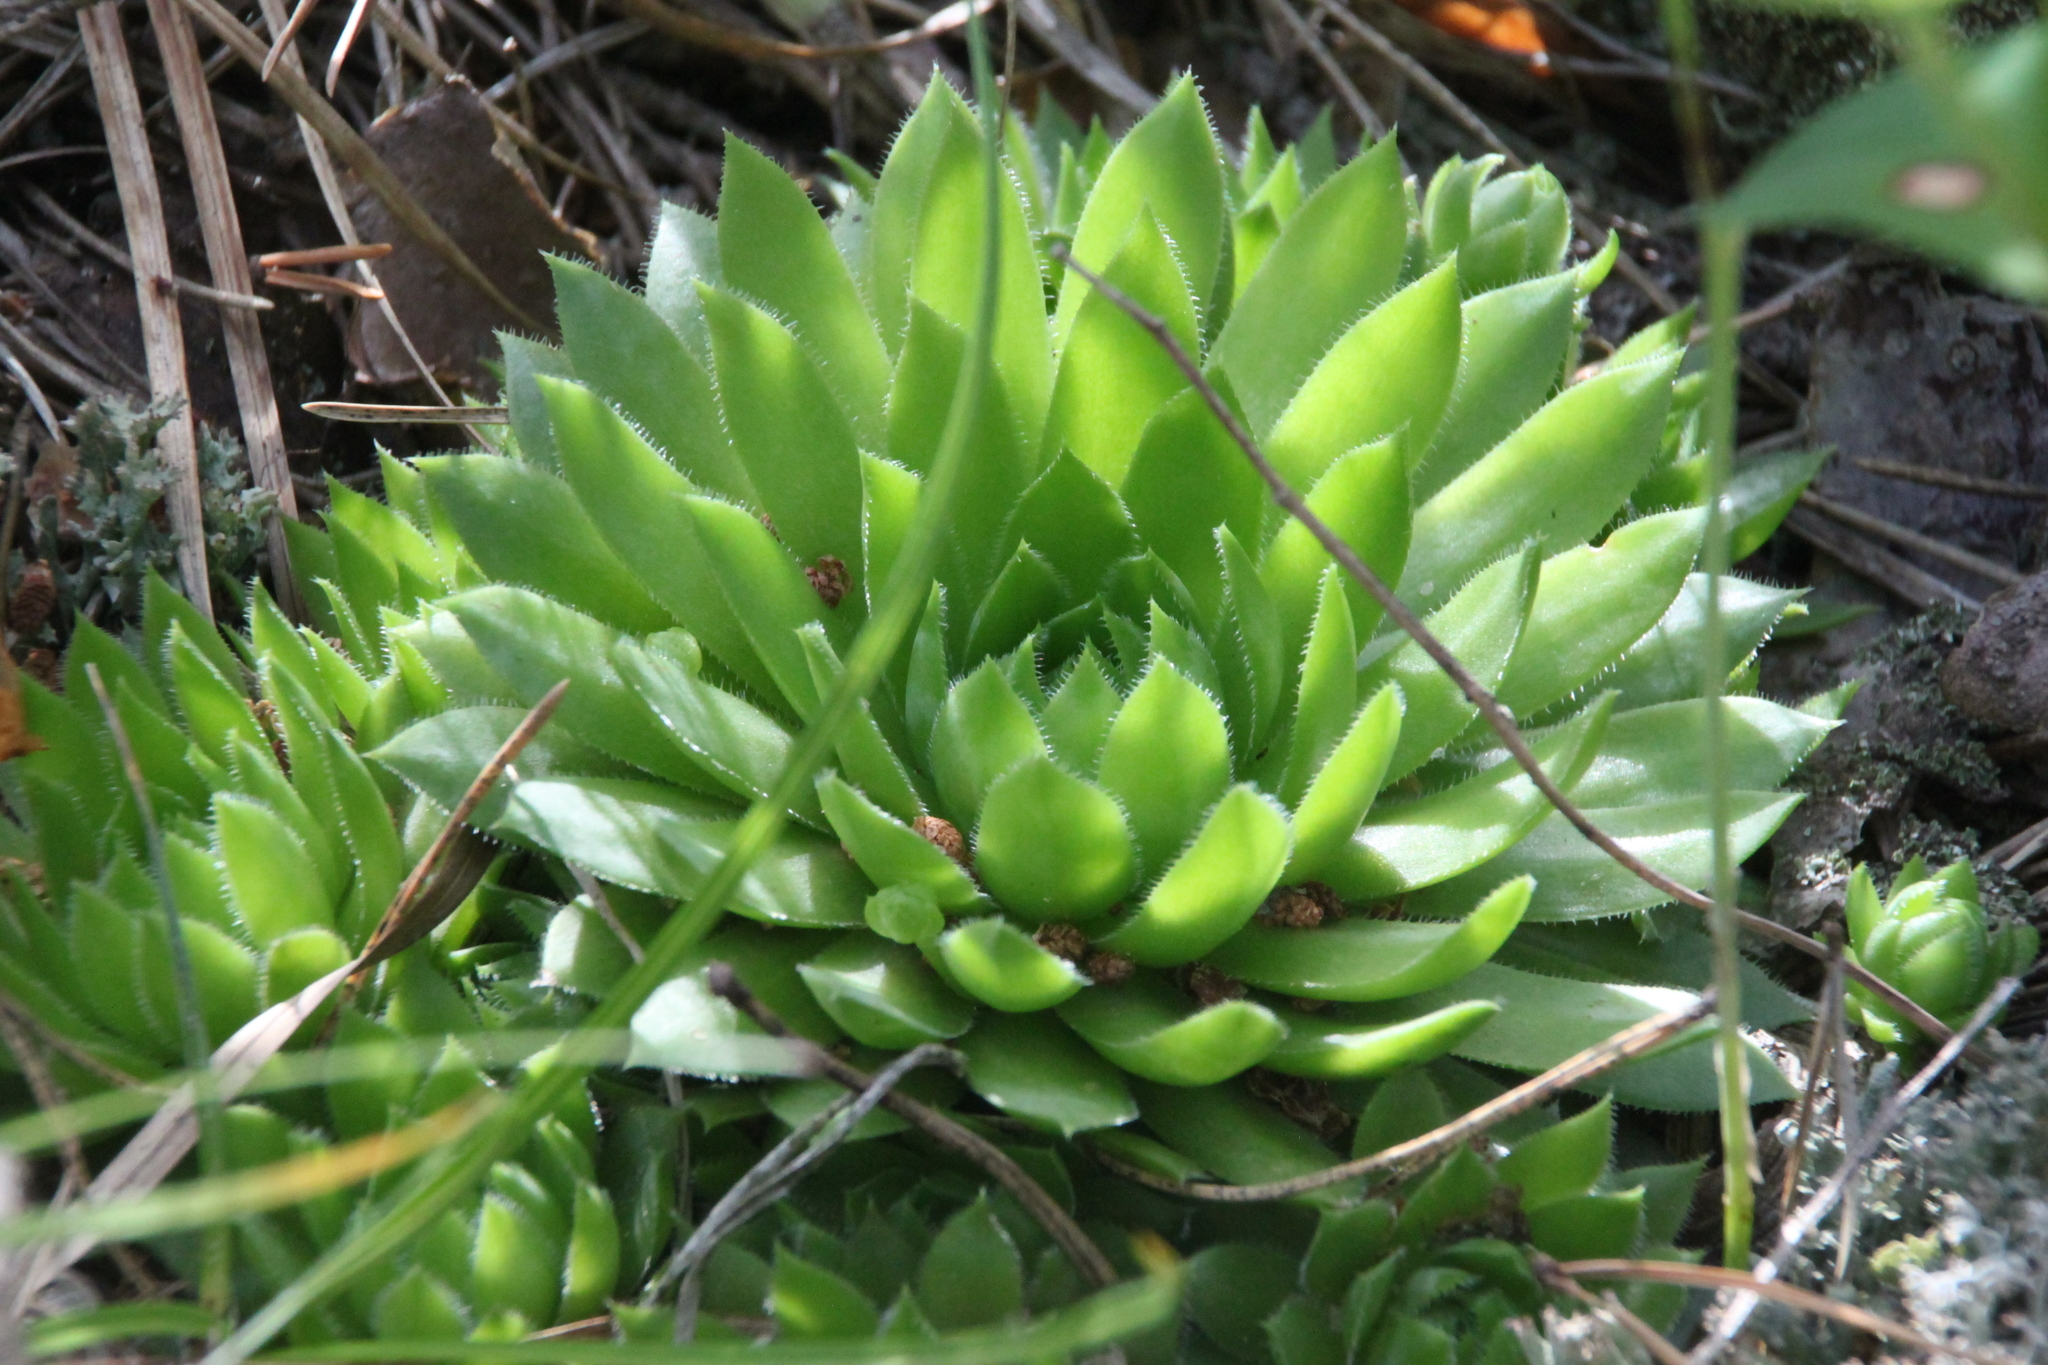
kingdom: Plantae
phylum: Tracheophyta
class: Magnoliopsida
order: Saxifragales
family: Crassulaceae
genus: Sempervivum
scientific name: Sempervivum globiferum
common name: Rolling hen-and-chicks
